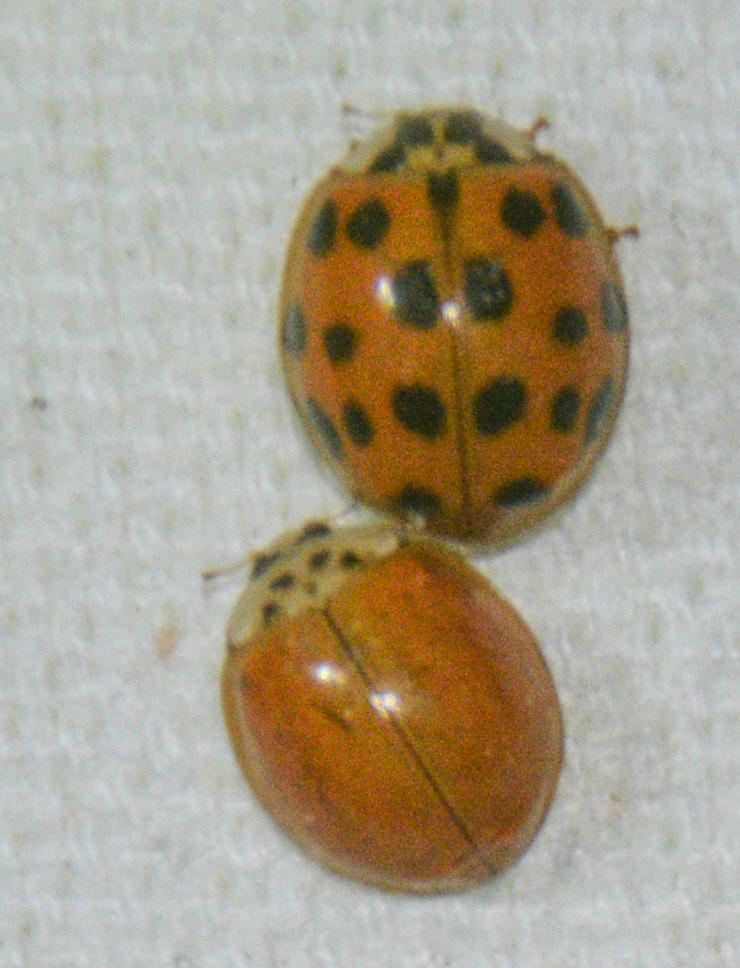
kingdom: Animalia
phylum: Arthropoda
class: Insecta
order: Coleoptera
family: Coccinellidae
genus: Harmonia
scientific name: Harmonia axyridis
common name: Harlequin ladybird
